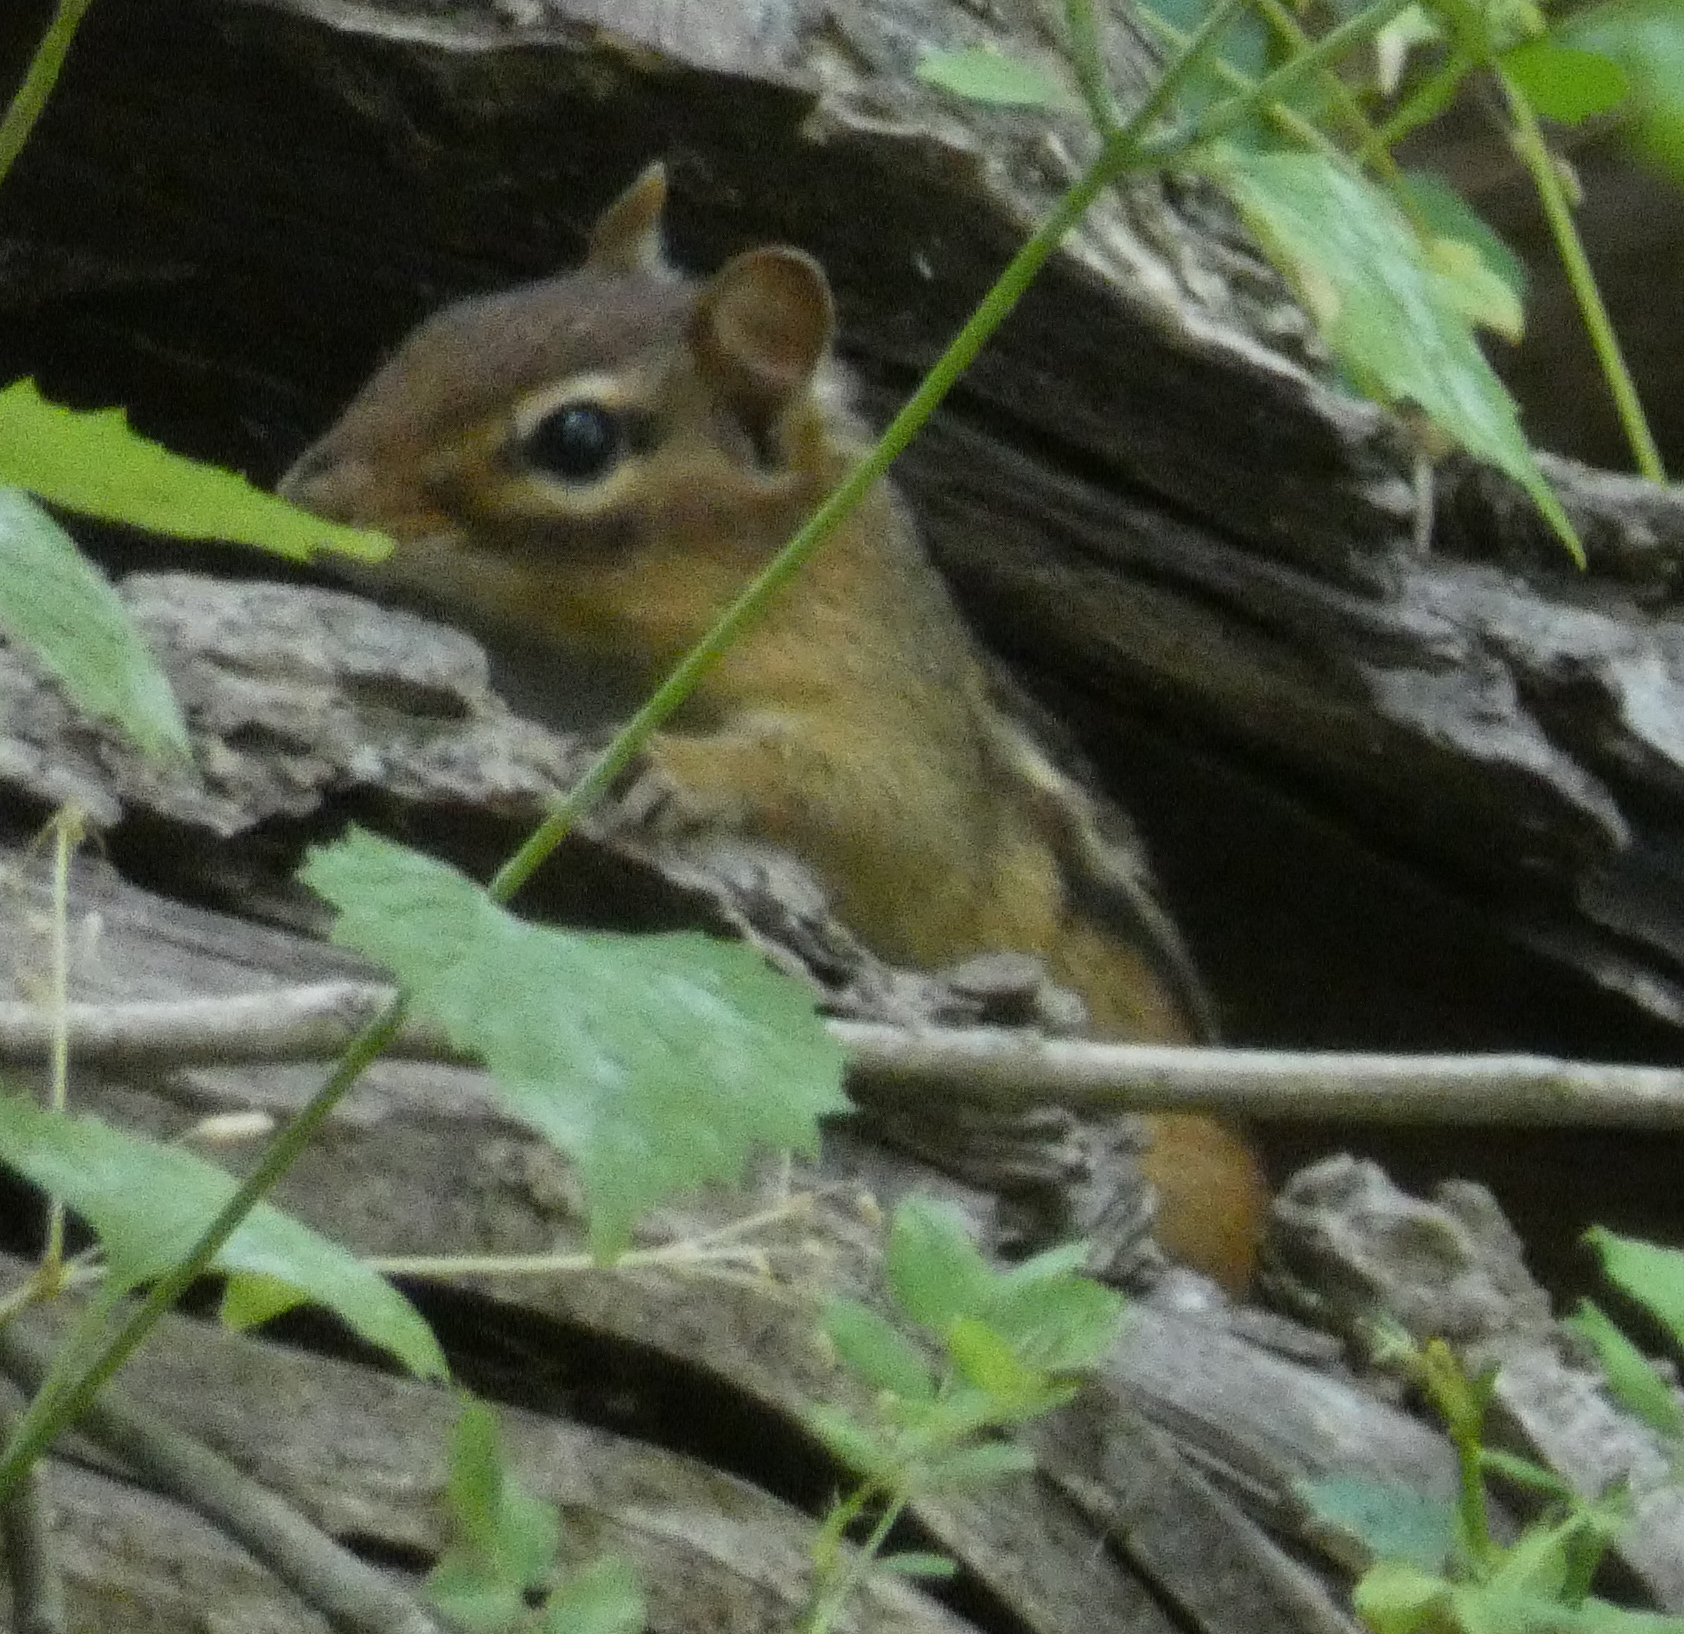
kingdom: Animalia
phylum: Chordata
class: Mammalia
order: Rodentia
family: Sciuridae
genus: Tamias
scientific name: Tamias striatus
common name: Eastern chipmunk
